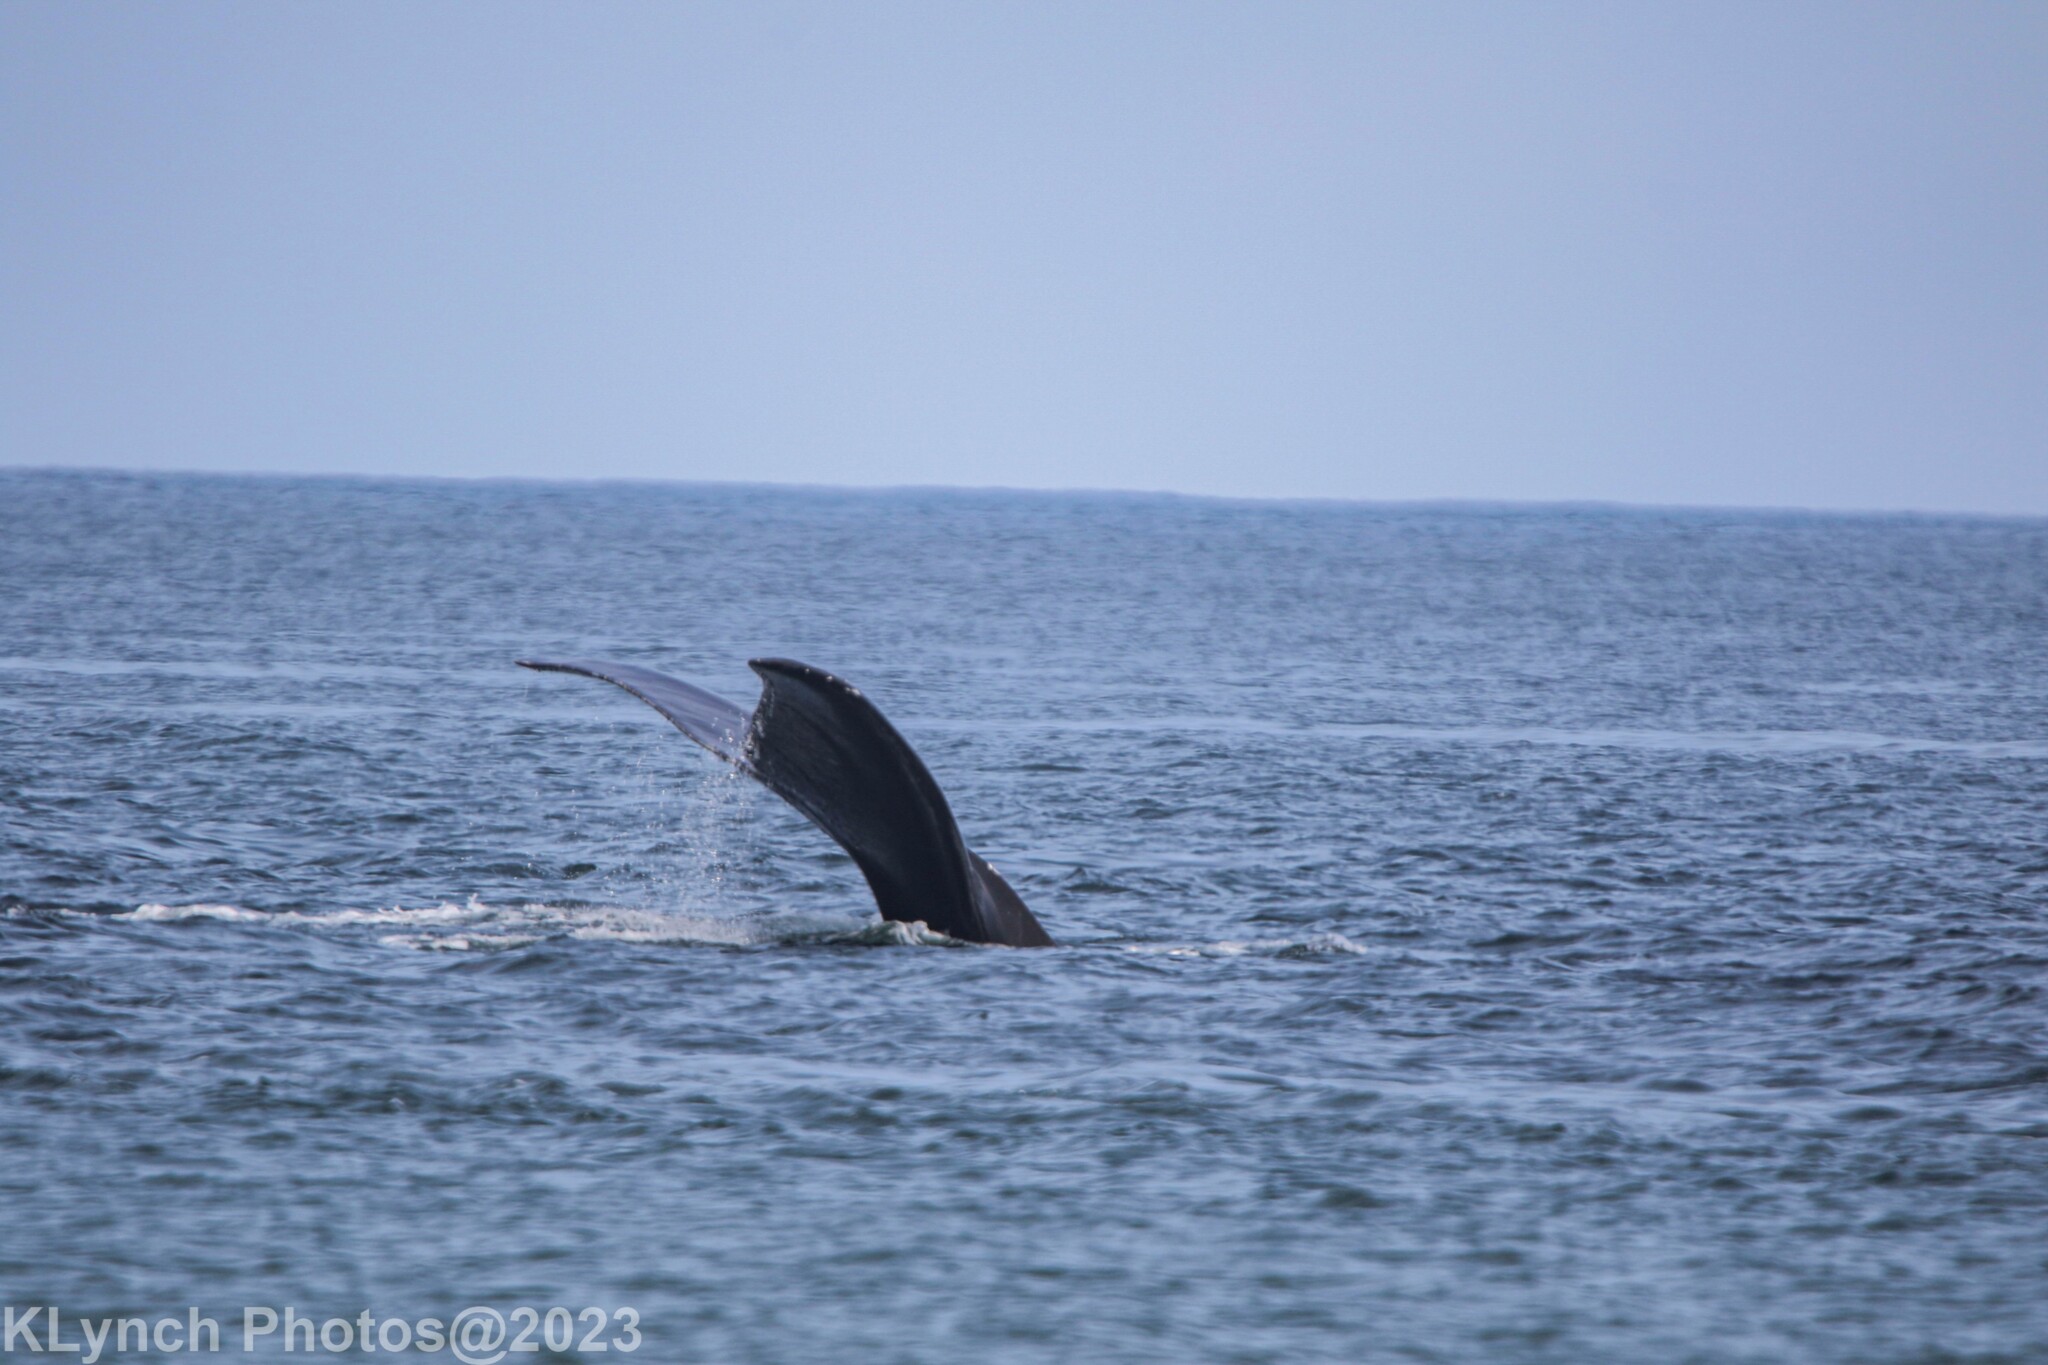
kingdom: Animalia
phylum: Chordata
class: Mammalia
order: Cetacea
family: Balaenidae
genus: Eubalaena
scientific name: Eubalaena glacialis
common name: North atlantic right whale
